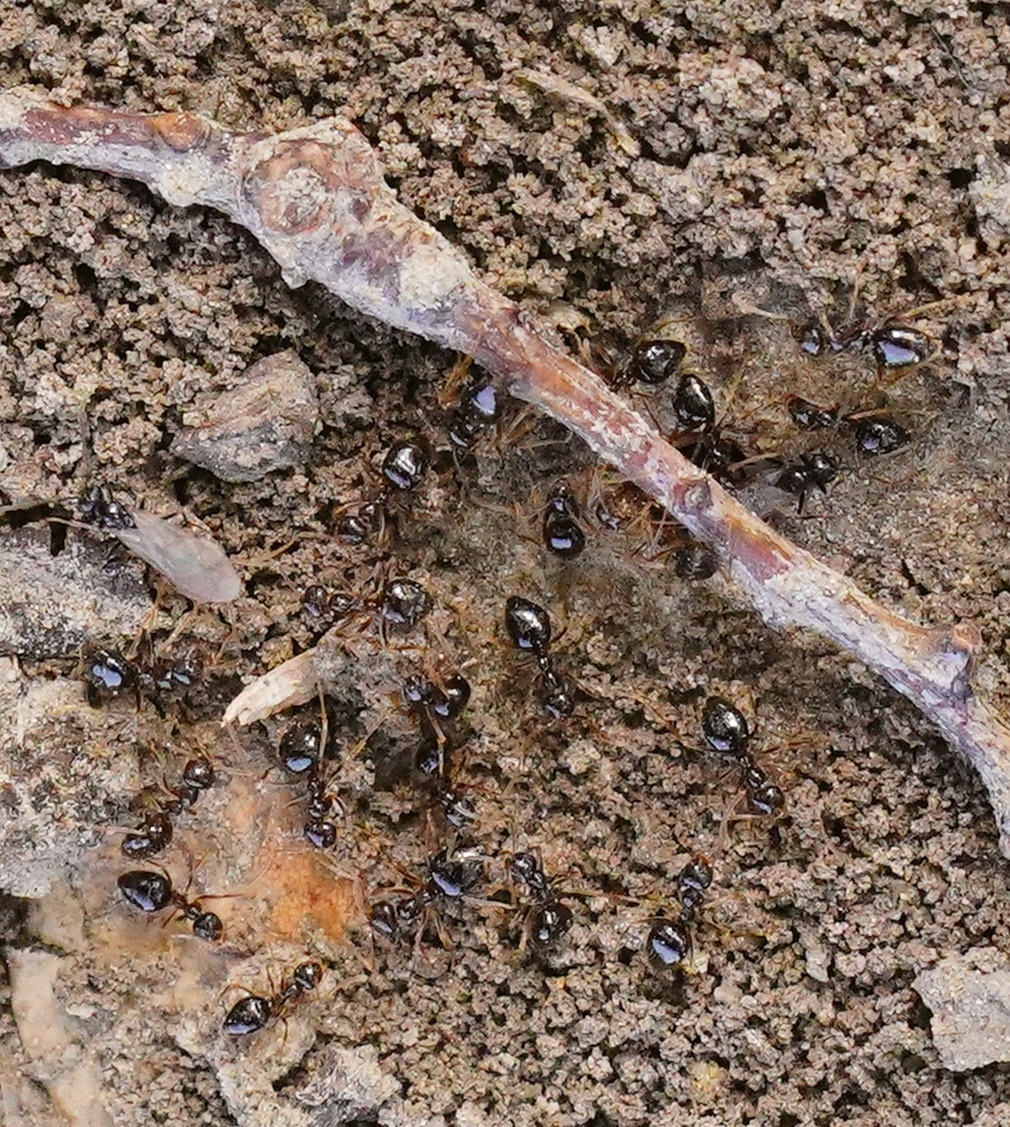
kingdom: Animalia
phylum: Arthropoda
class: Insecta
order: Hymenoptera
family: Formicidae
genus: Prenolepis
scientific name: Prenolepis imparis
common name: Small honey ant
